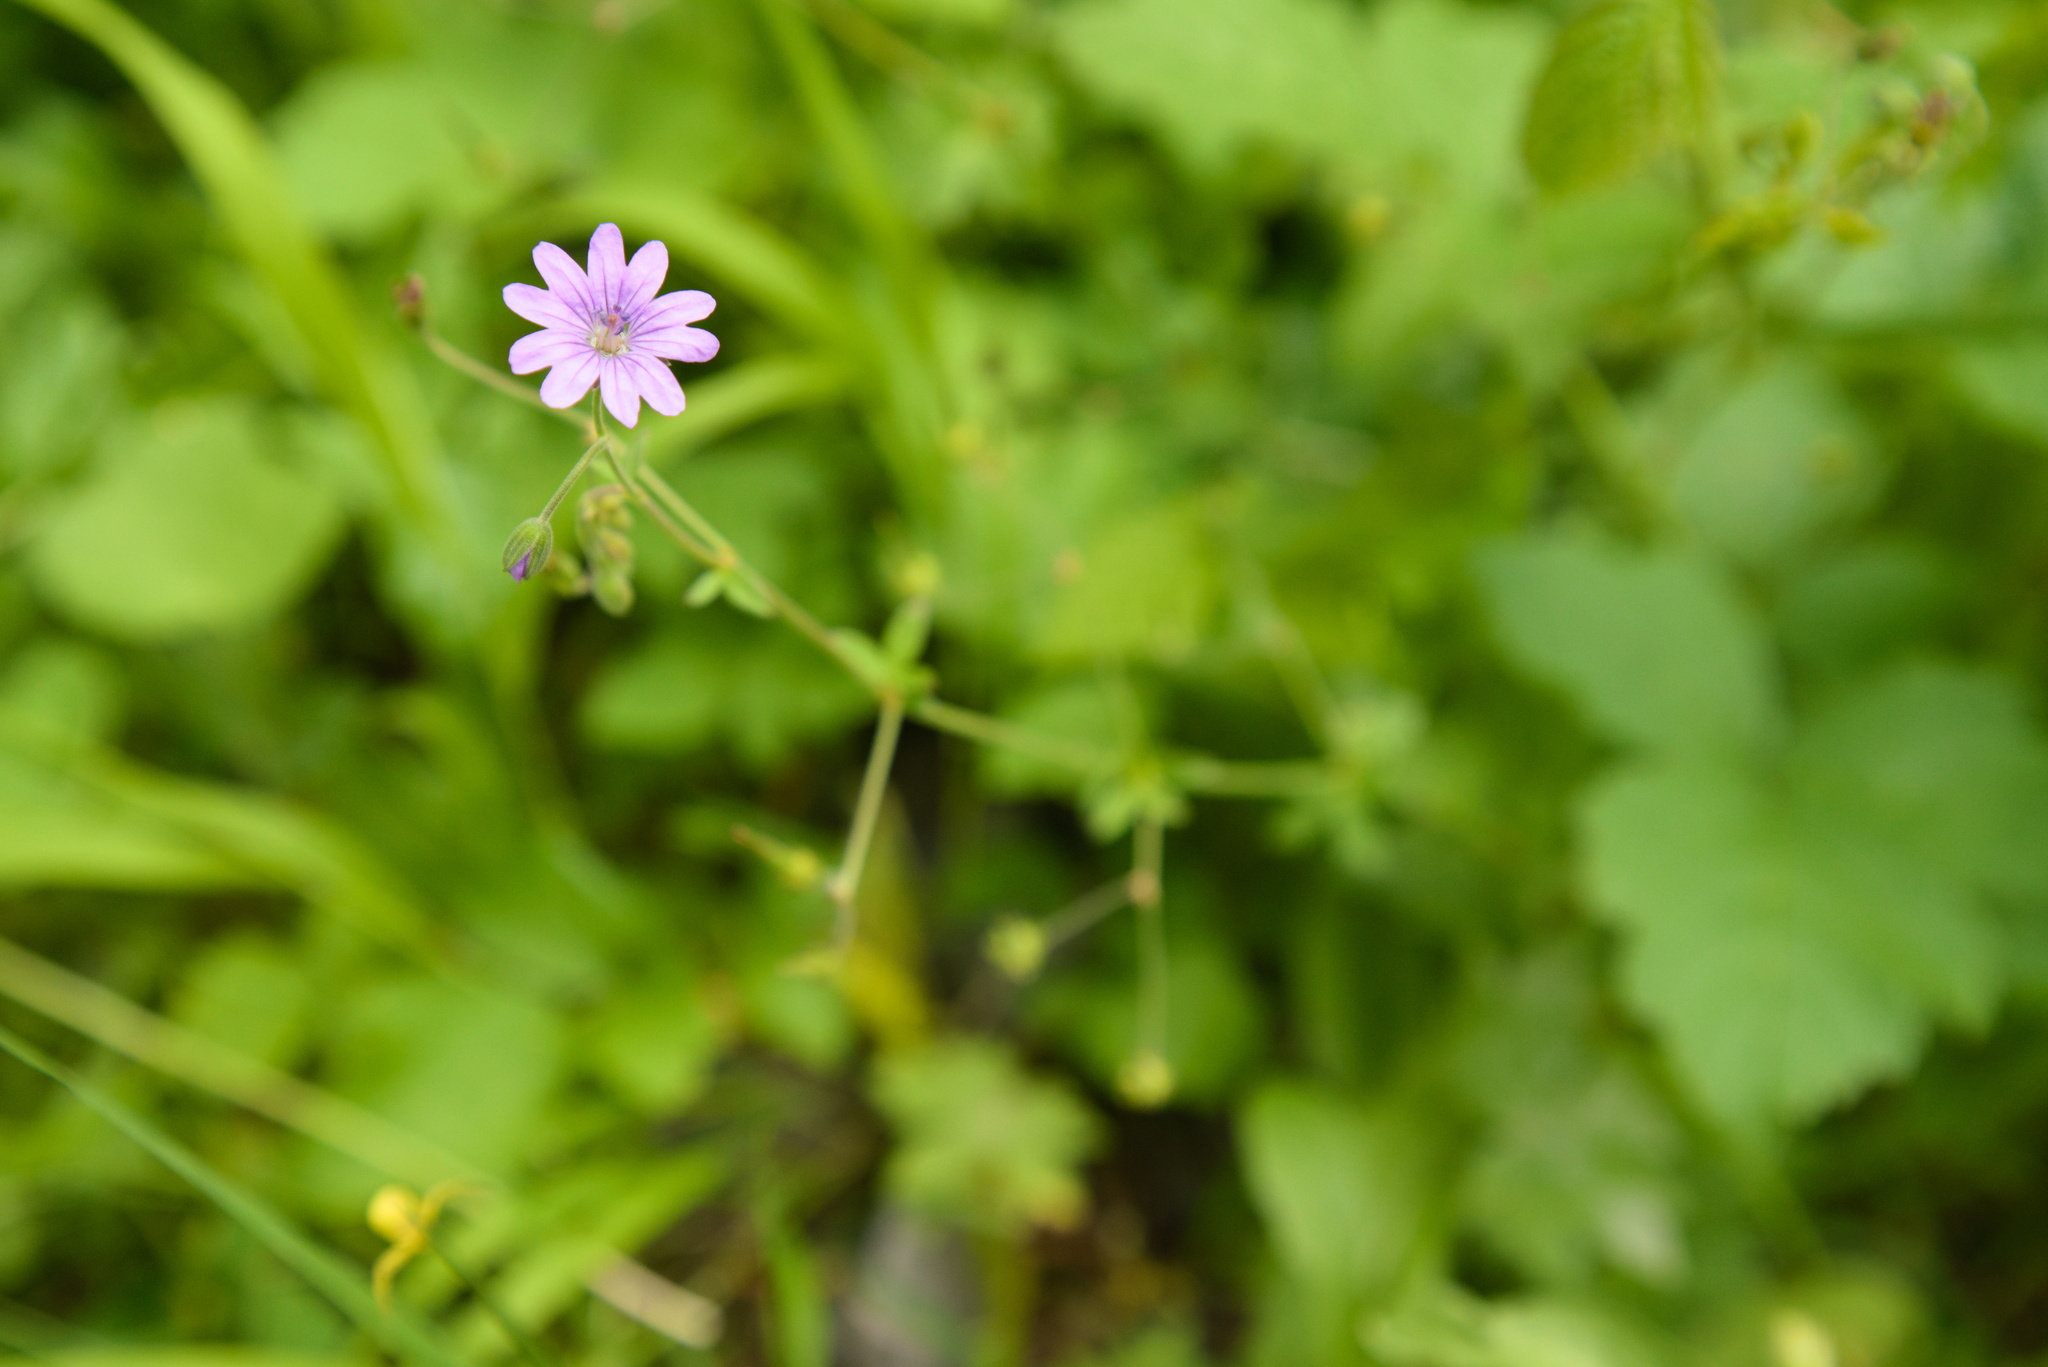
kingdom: Plantae
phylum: Tracheophyta
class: Magnoliopsida
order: Geraniales
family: Geraniaceae
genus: Geranium
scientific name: Geranium pyrenaicum
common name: Hedgerow crane's-bill
